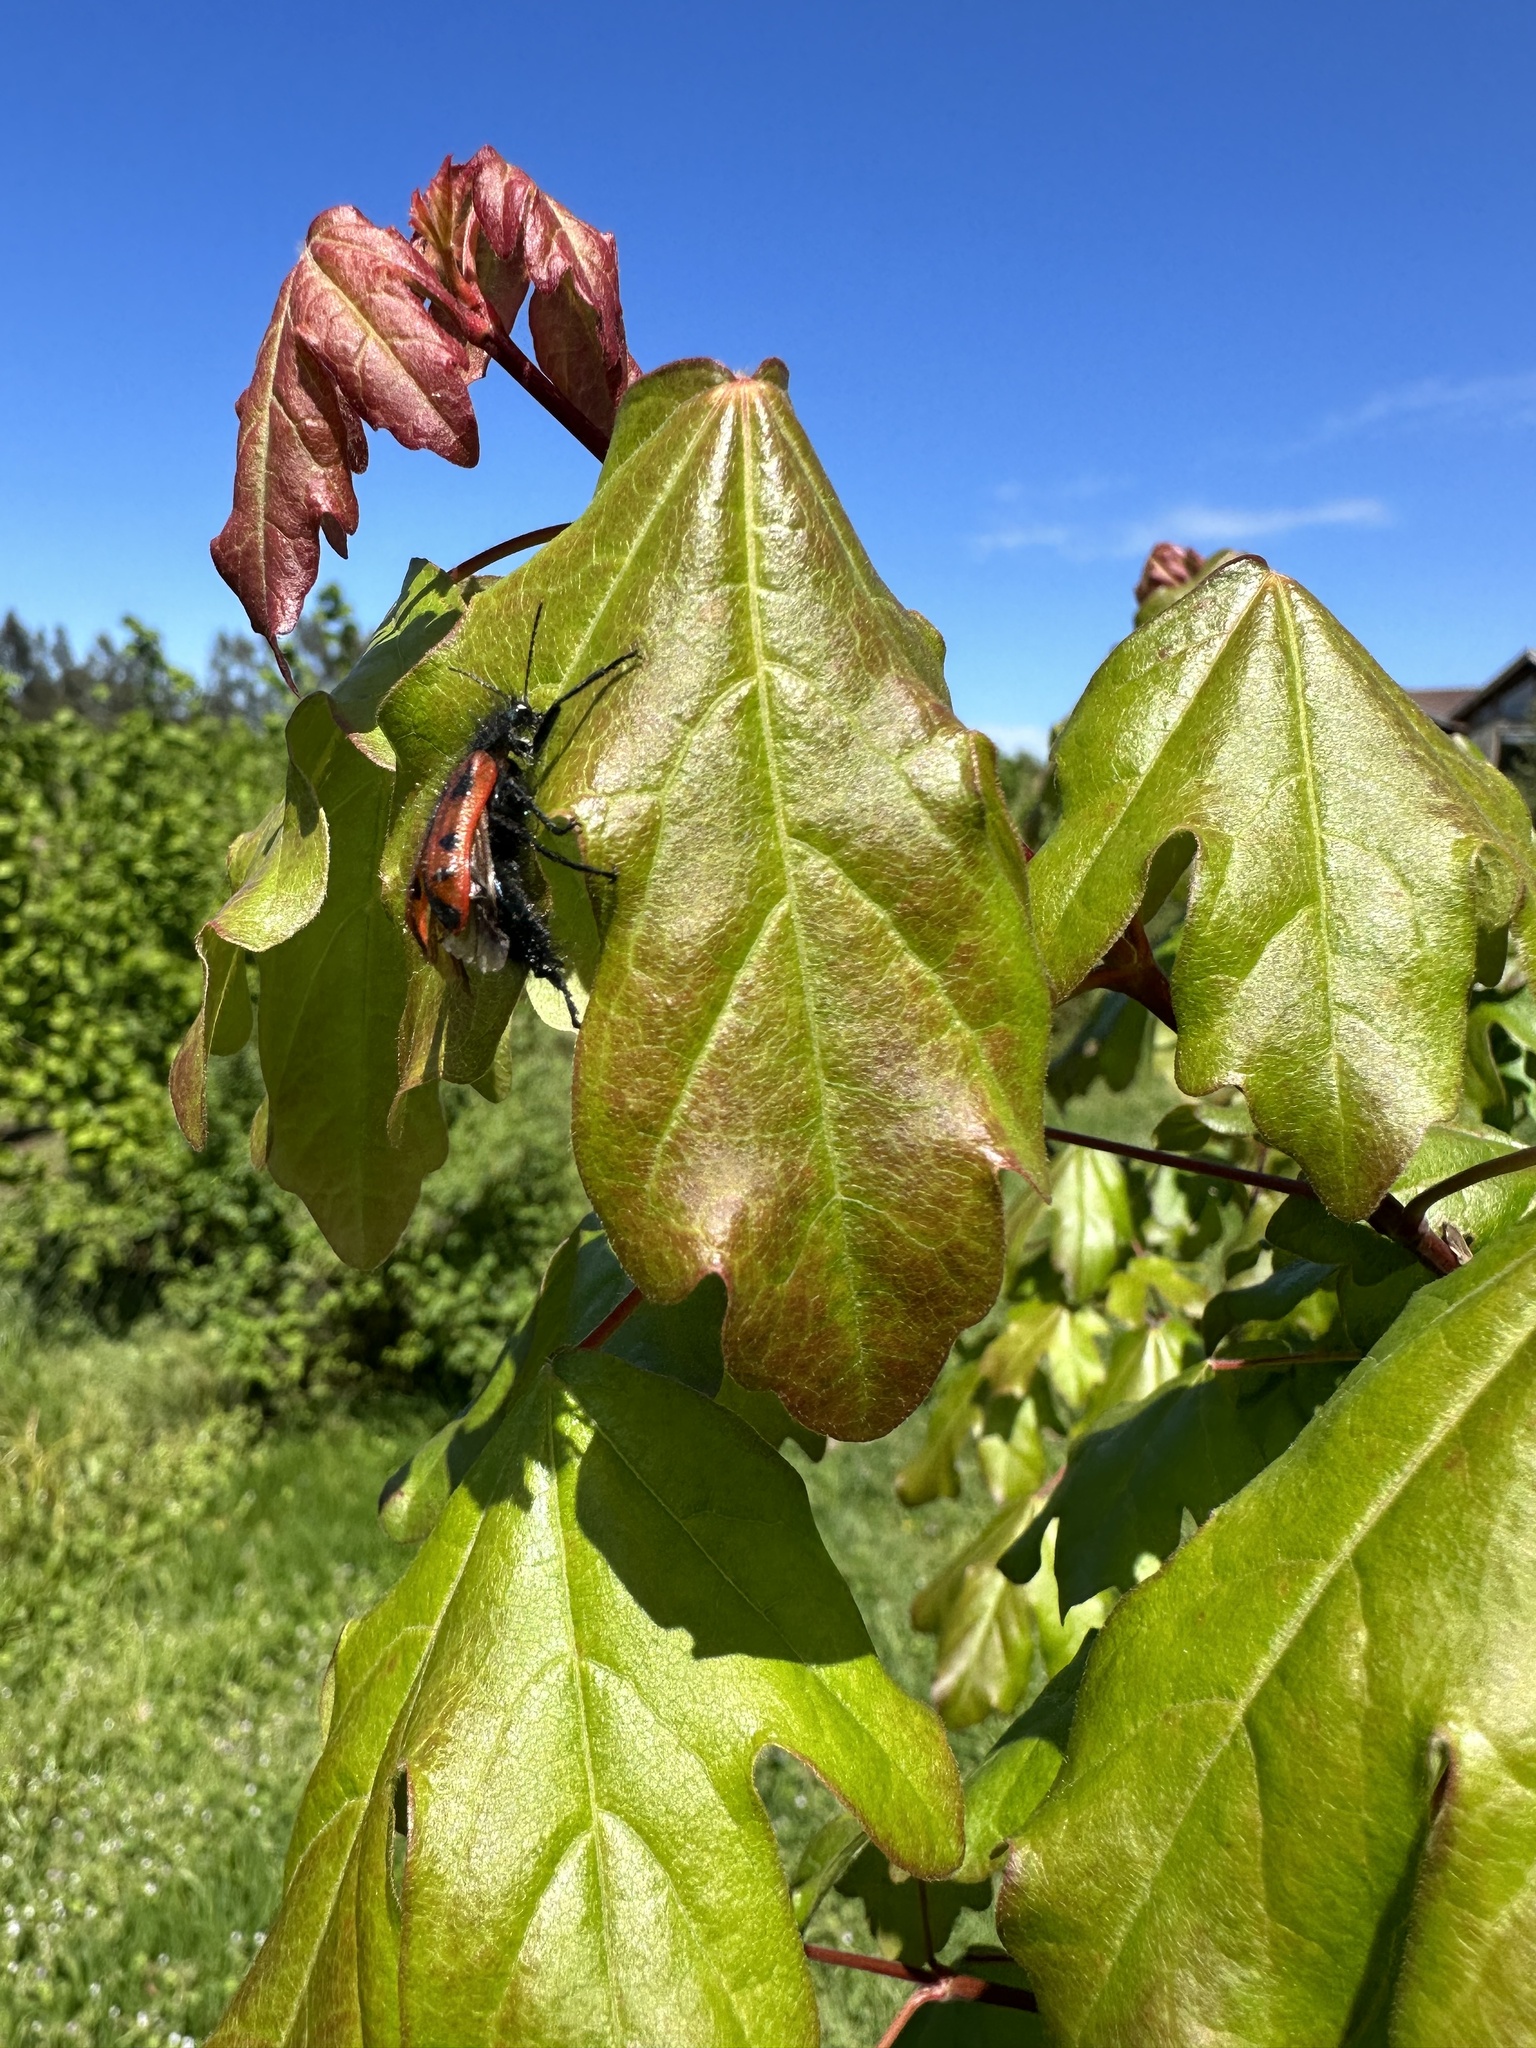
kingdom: Animalia
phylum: Arthropoda
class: Insecta
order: Coleoptera
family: Melyridae
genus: Astylus
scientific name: Astylus
